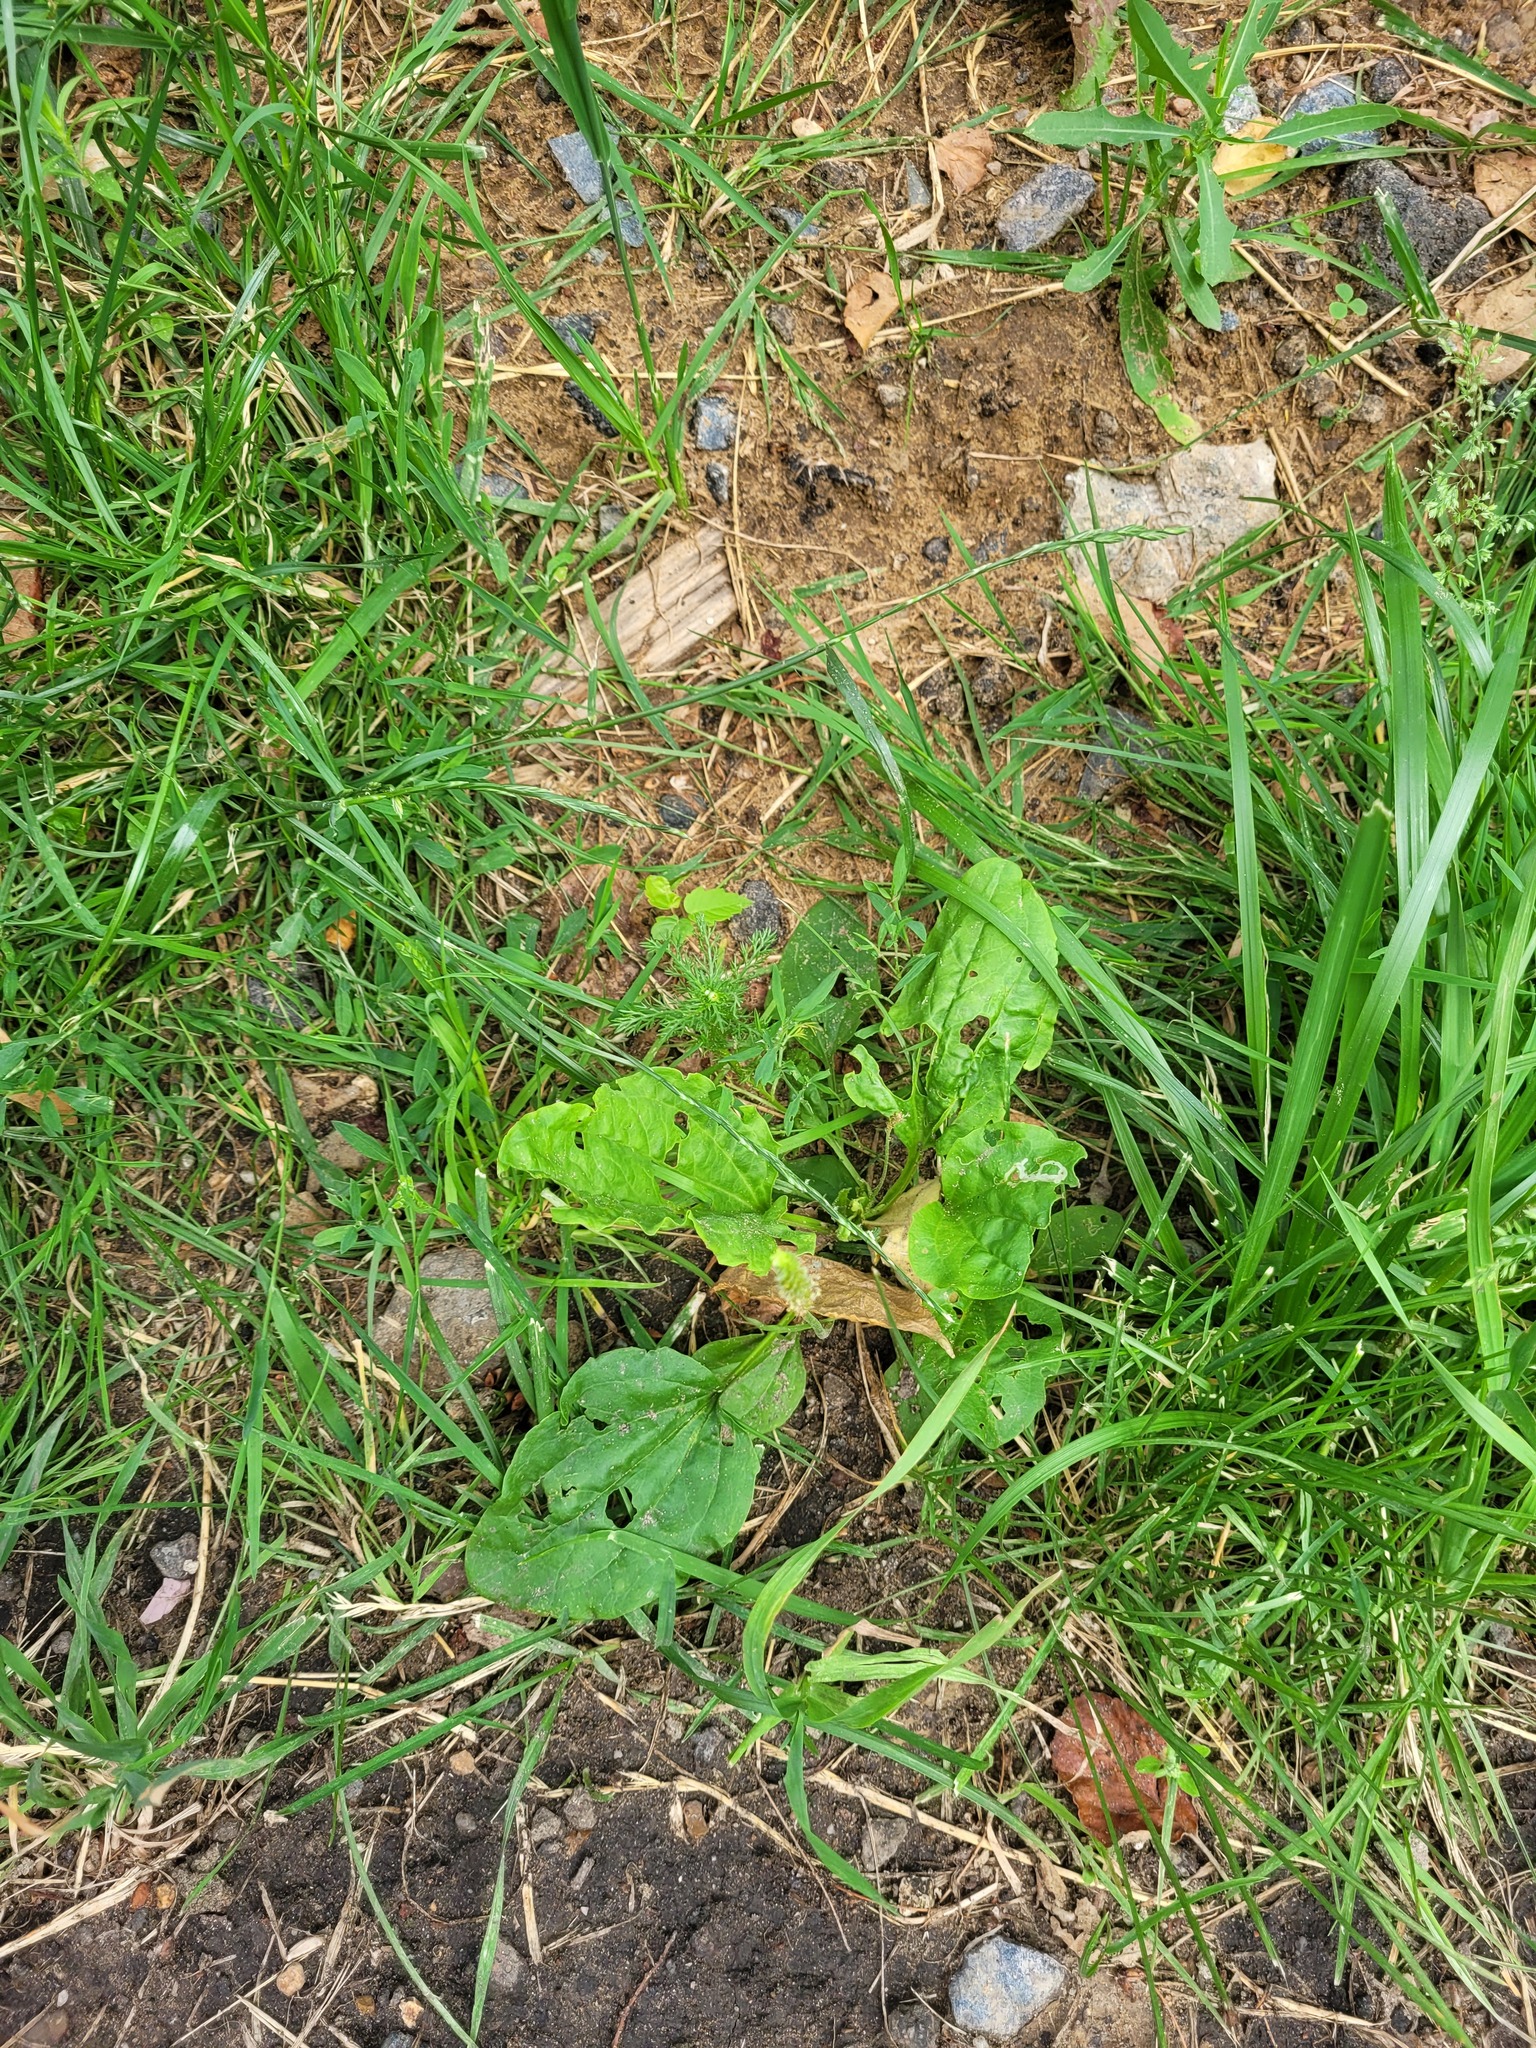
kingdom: Plantae
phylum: Tracheophyta
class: Magnoliopsida
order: Lamiales
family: Plantaginaceae
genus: Plantago
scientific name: Plantago major
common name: Common plantain
